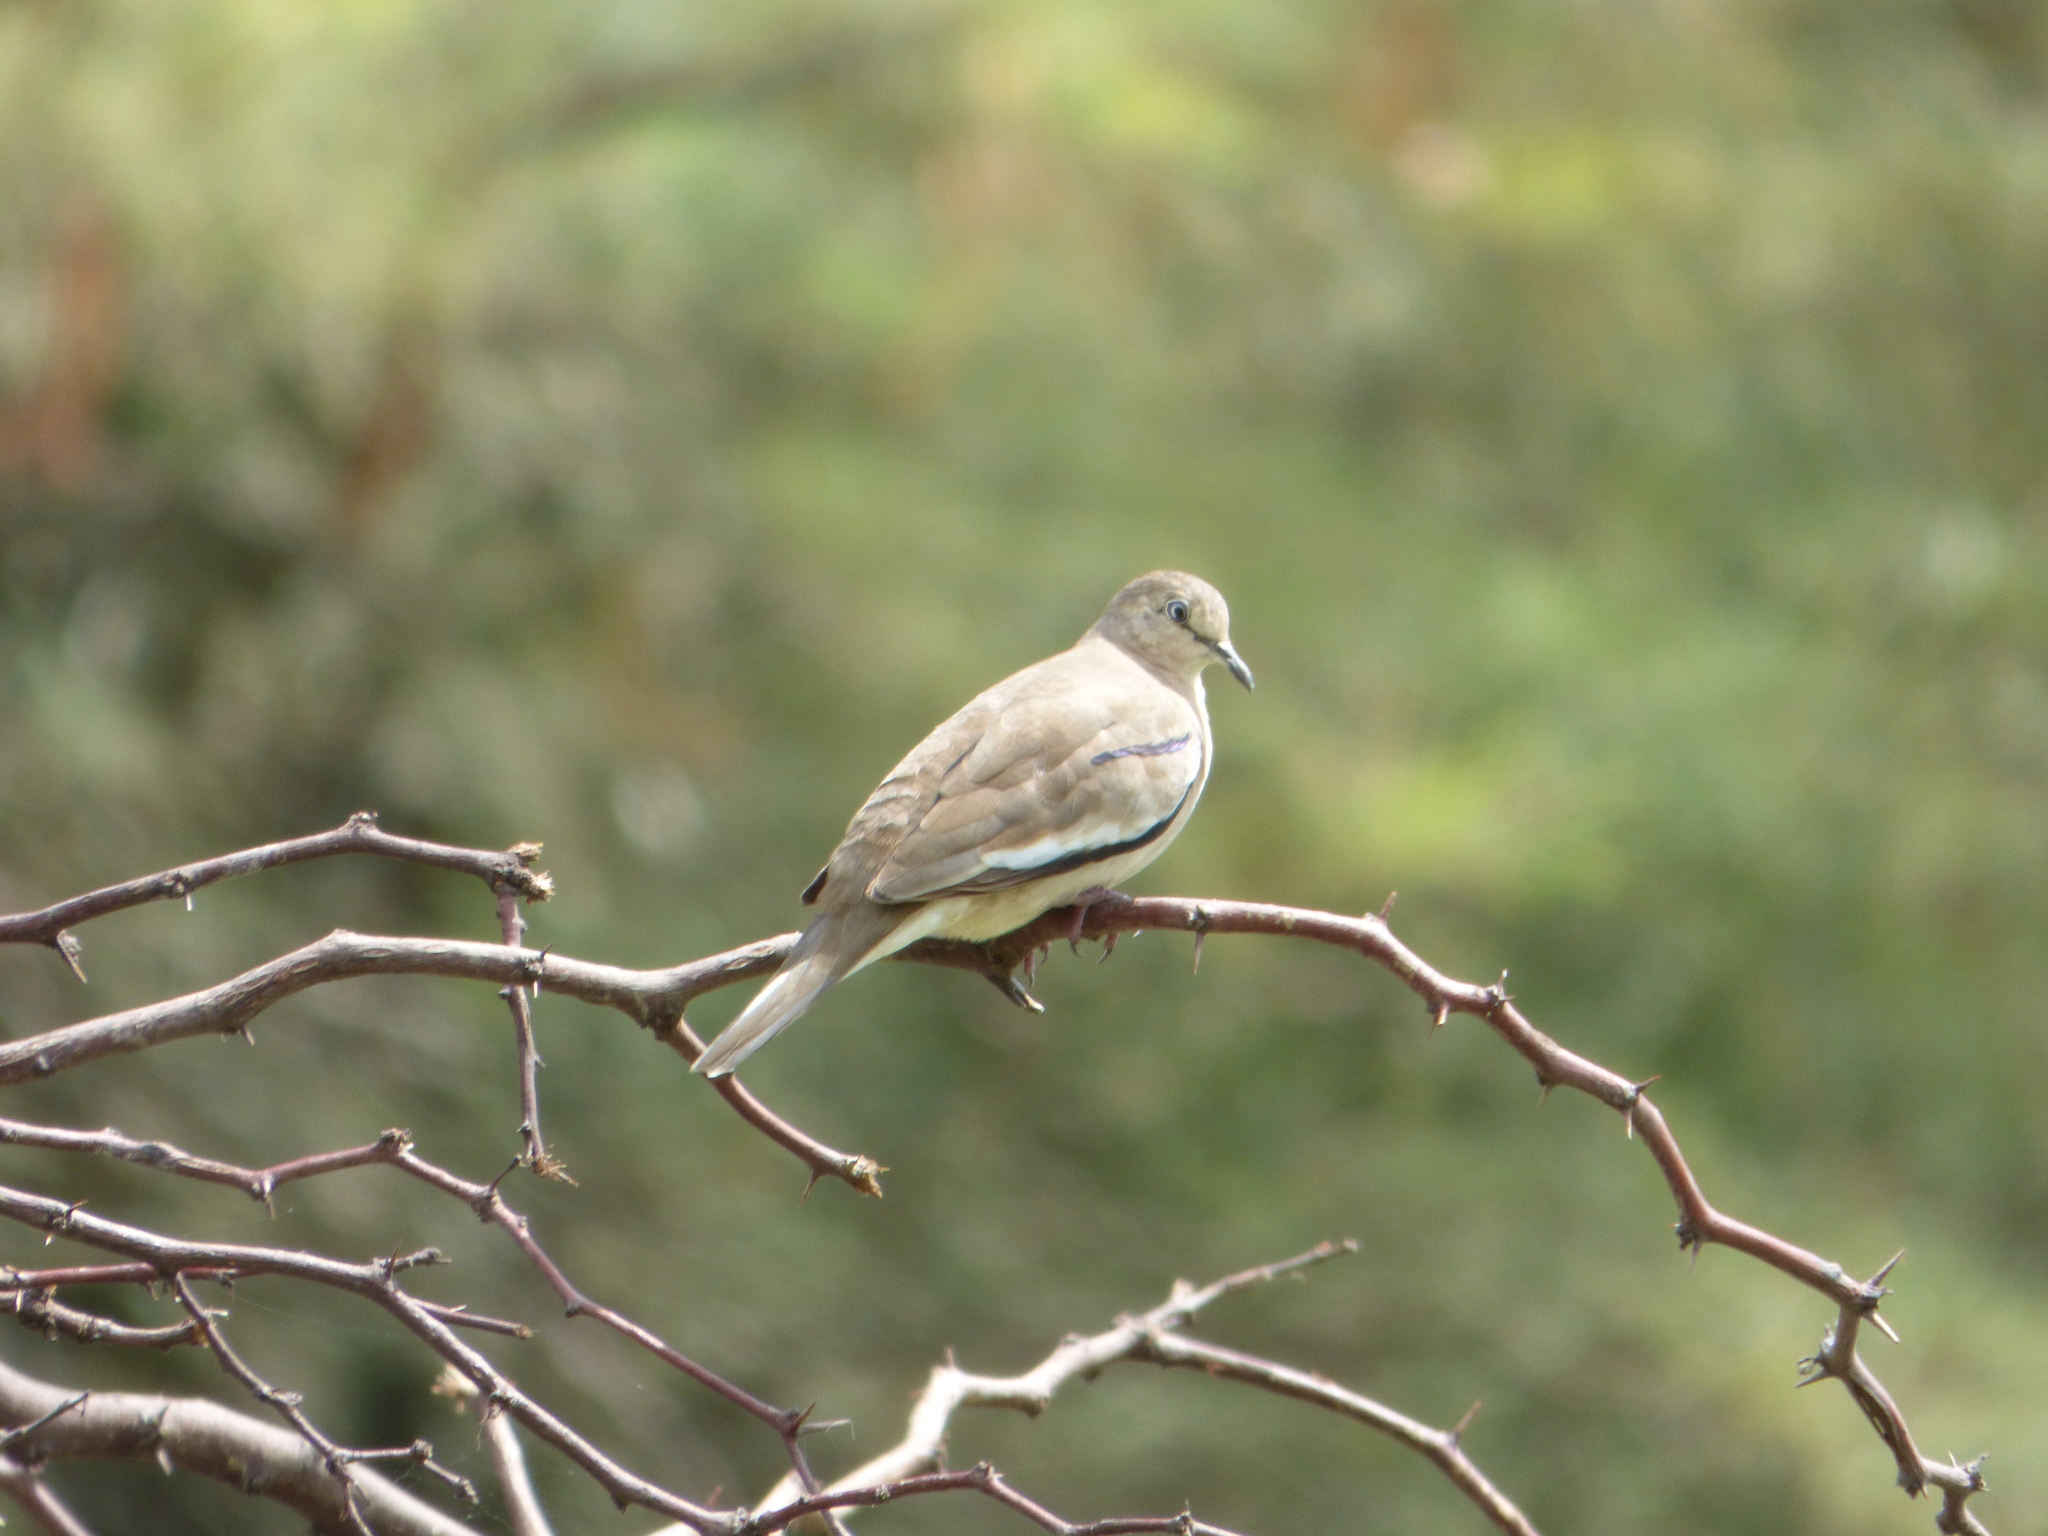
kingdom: Animalia
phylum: Chordata
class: Aves
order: Columbiformes
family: Columbidae
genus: Columbina
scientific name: Columbina picui
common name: Picui ground dove
